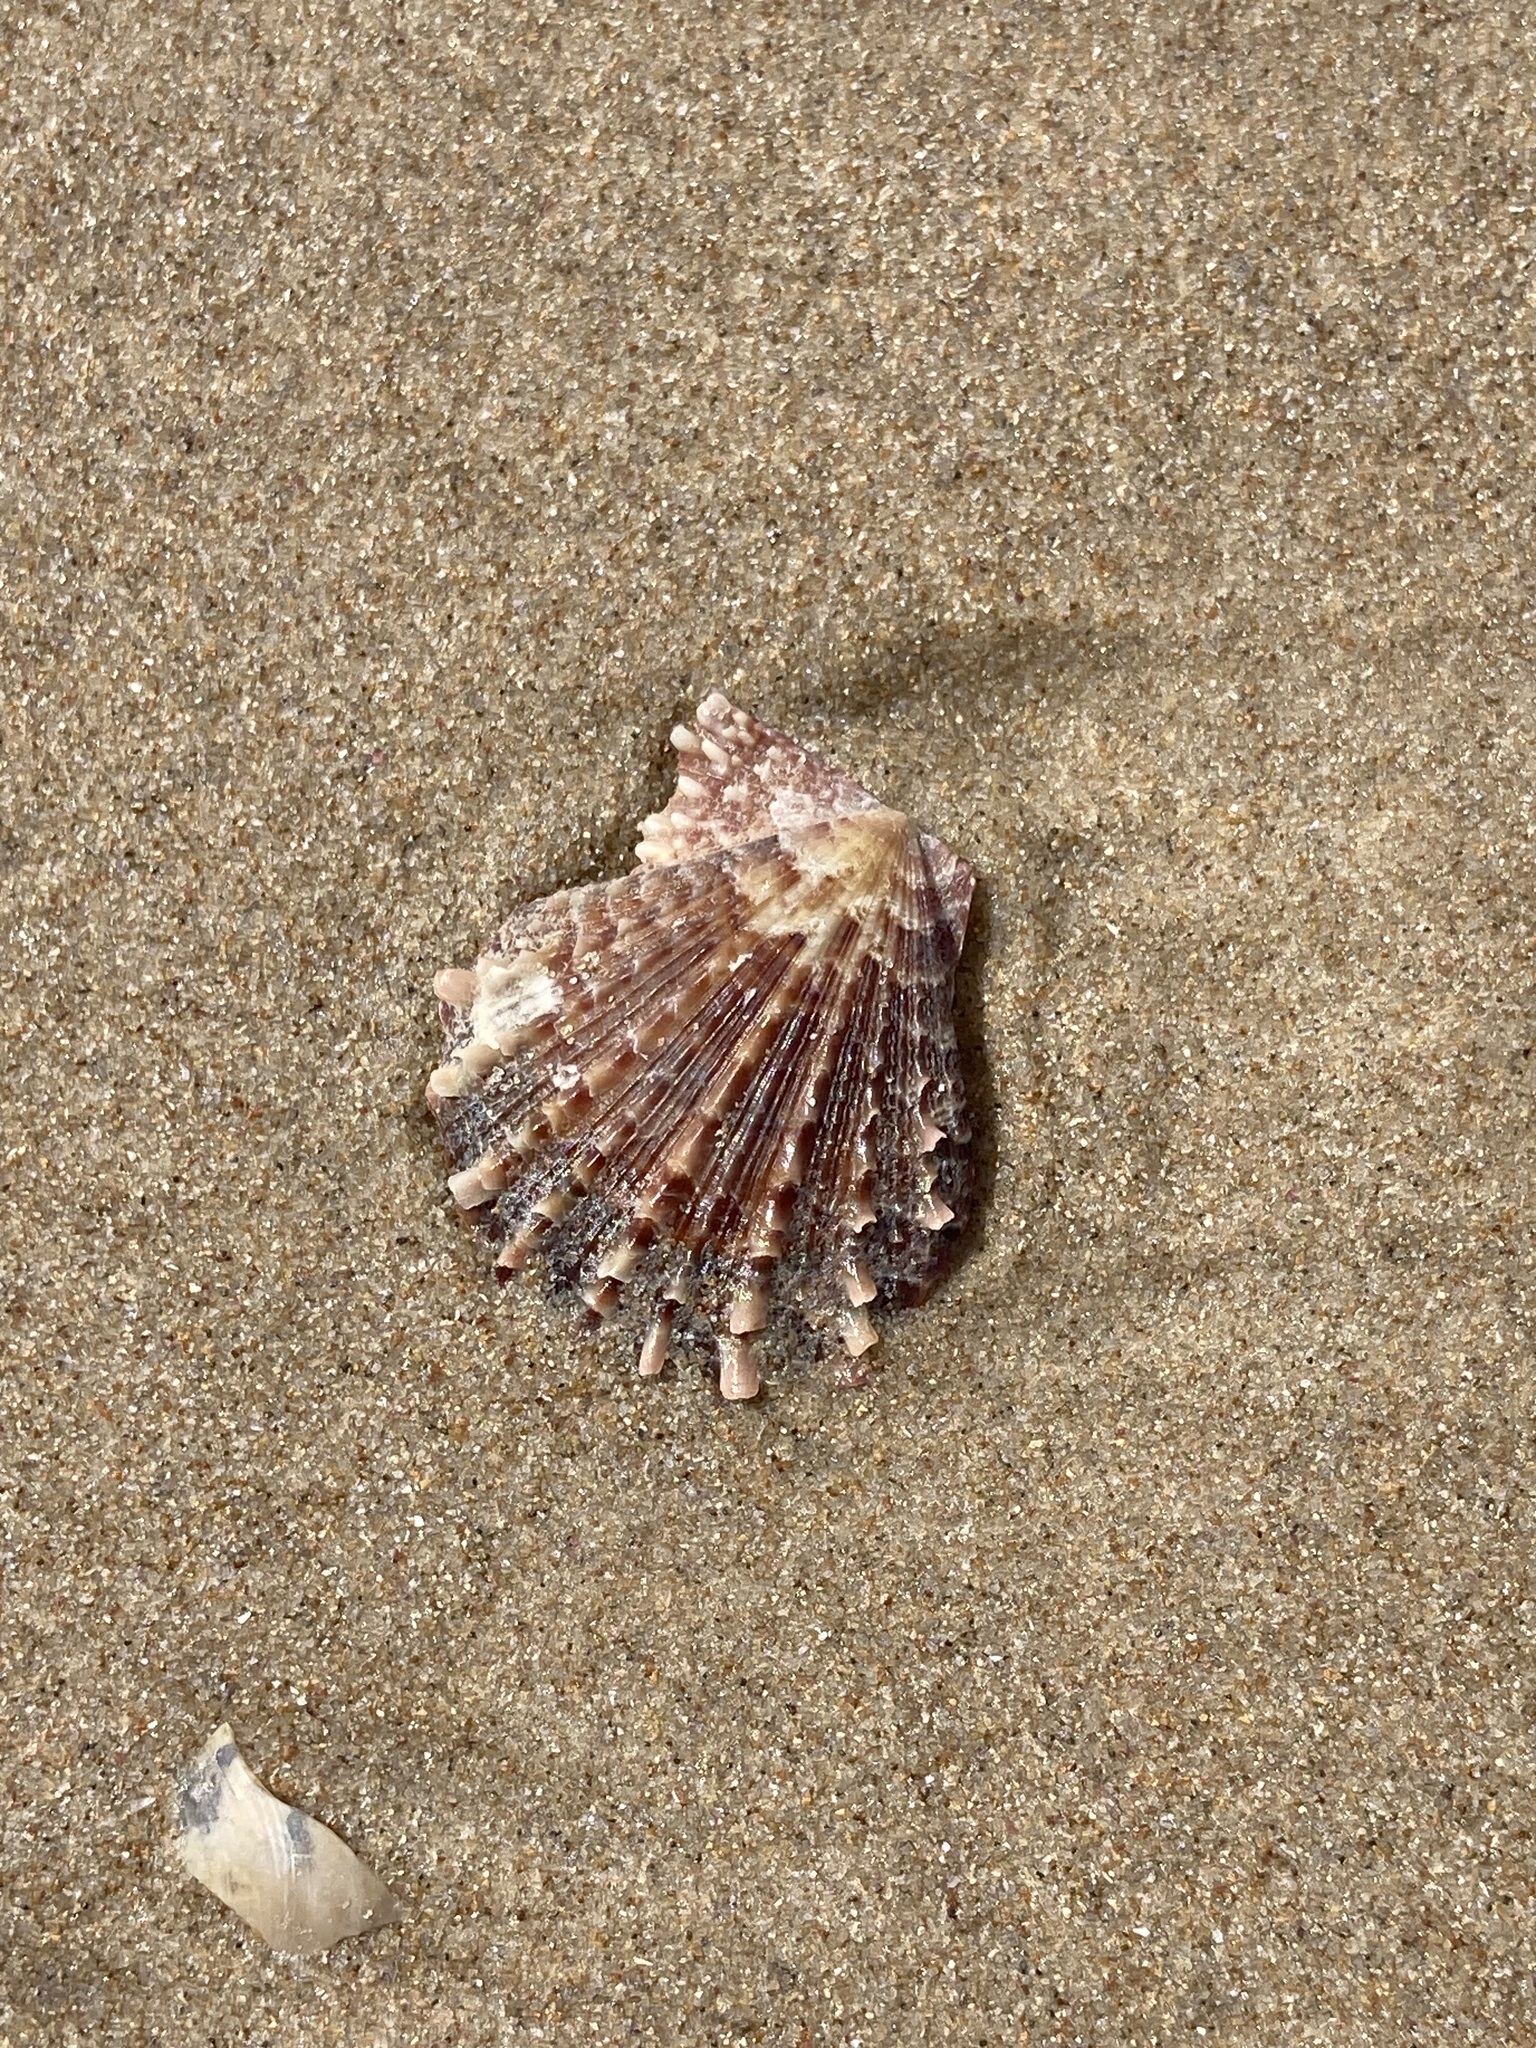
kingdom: Animalia
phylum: Mollusca
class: Bivalvia
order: Pectinida
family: Pectinidae
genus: Scaeochlamys
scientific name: Scaeochlamys livida
